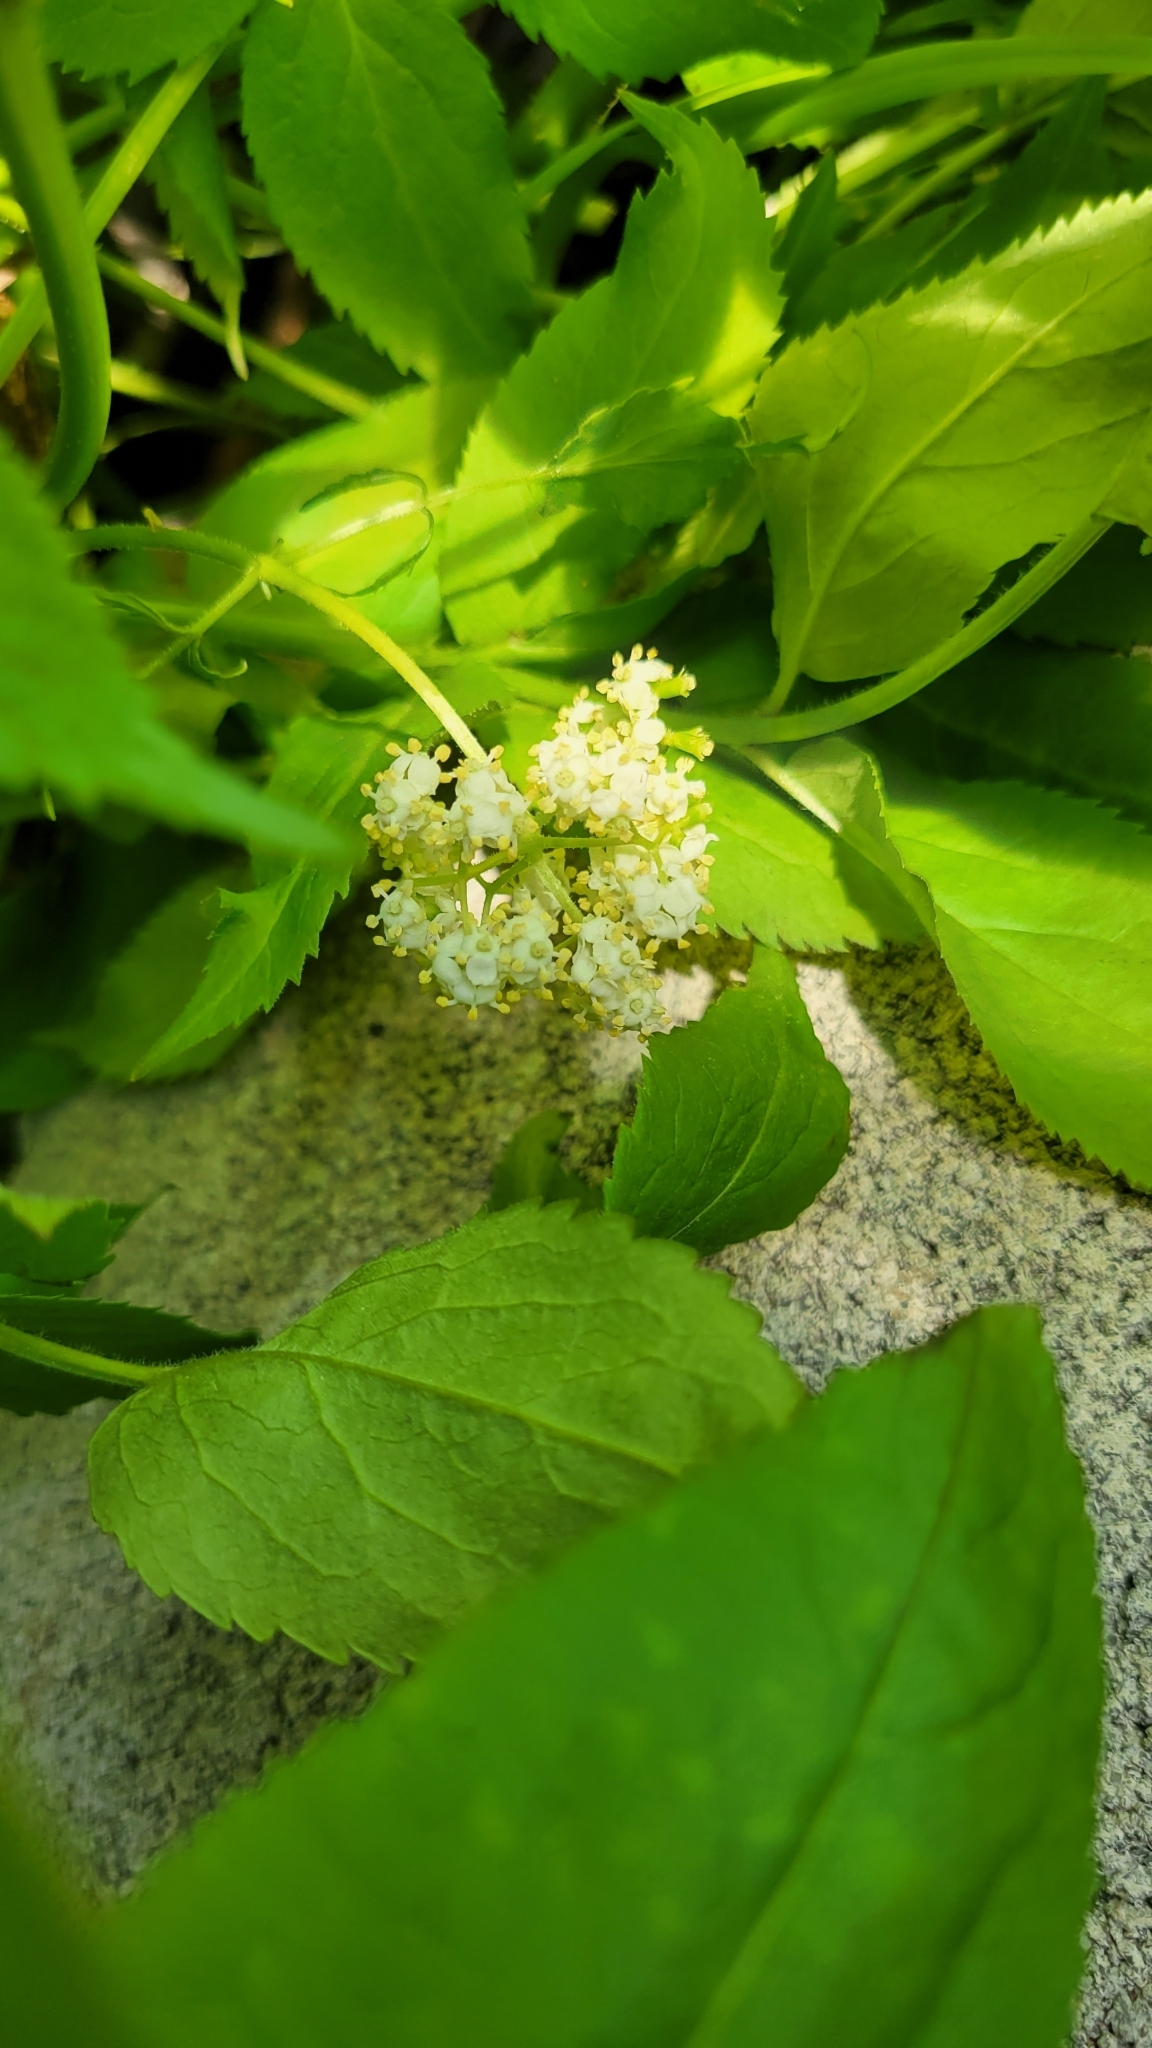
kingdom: Plantae
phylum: Tracheophyta
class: Magnoliopsida
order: Dipsacales
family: Viburnaceae
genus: Sambucus
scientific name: Sambucus racemosa
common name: Red-berried elder
